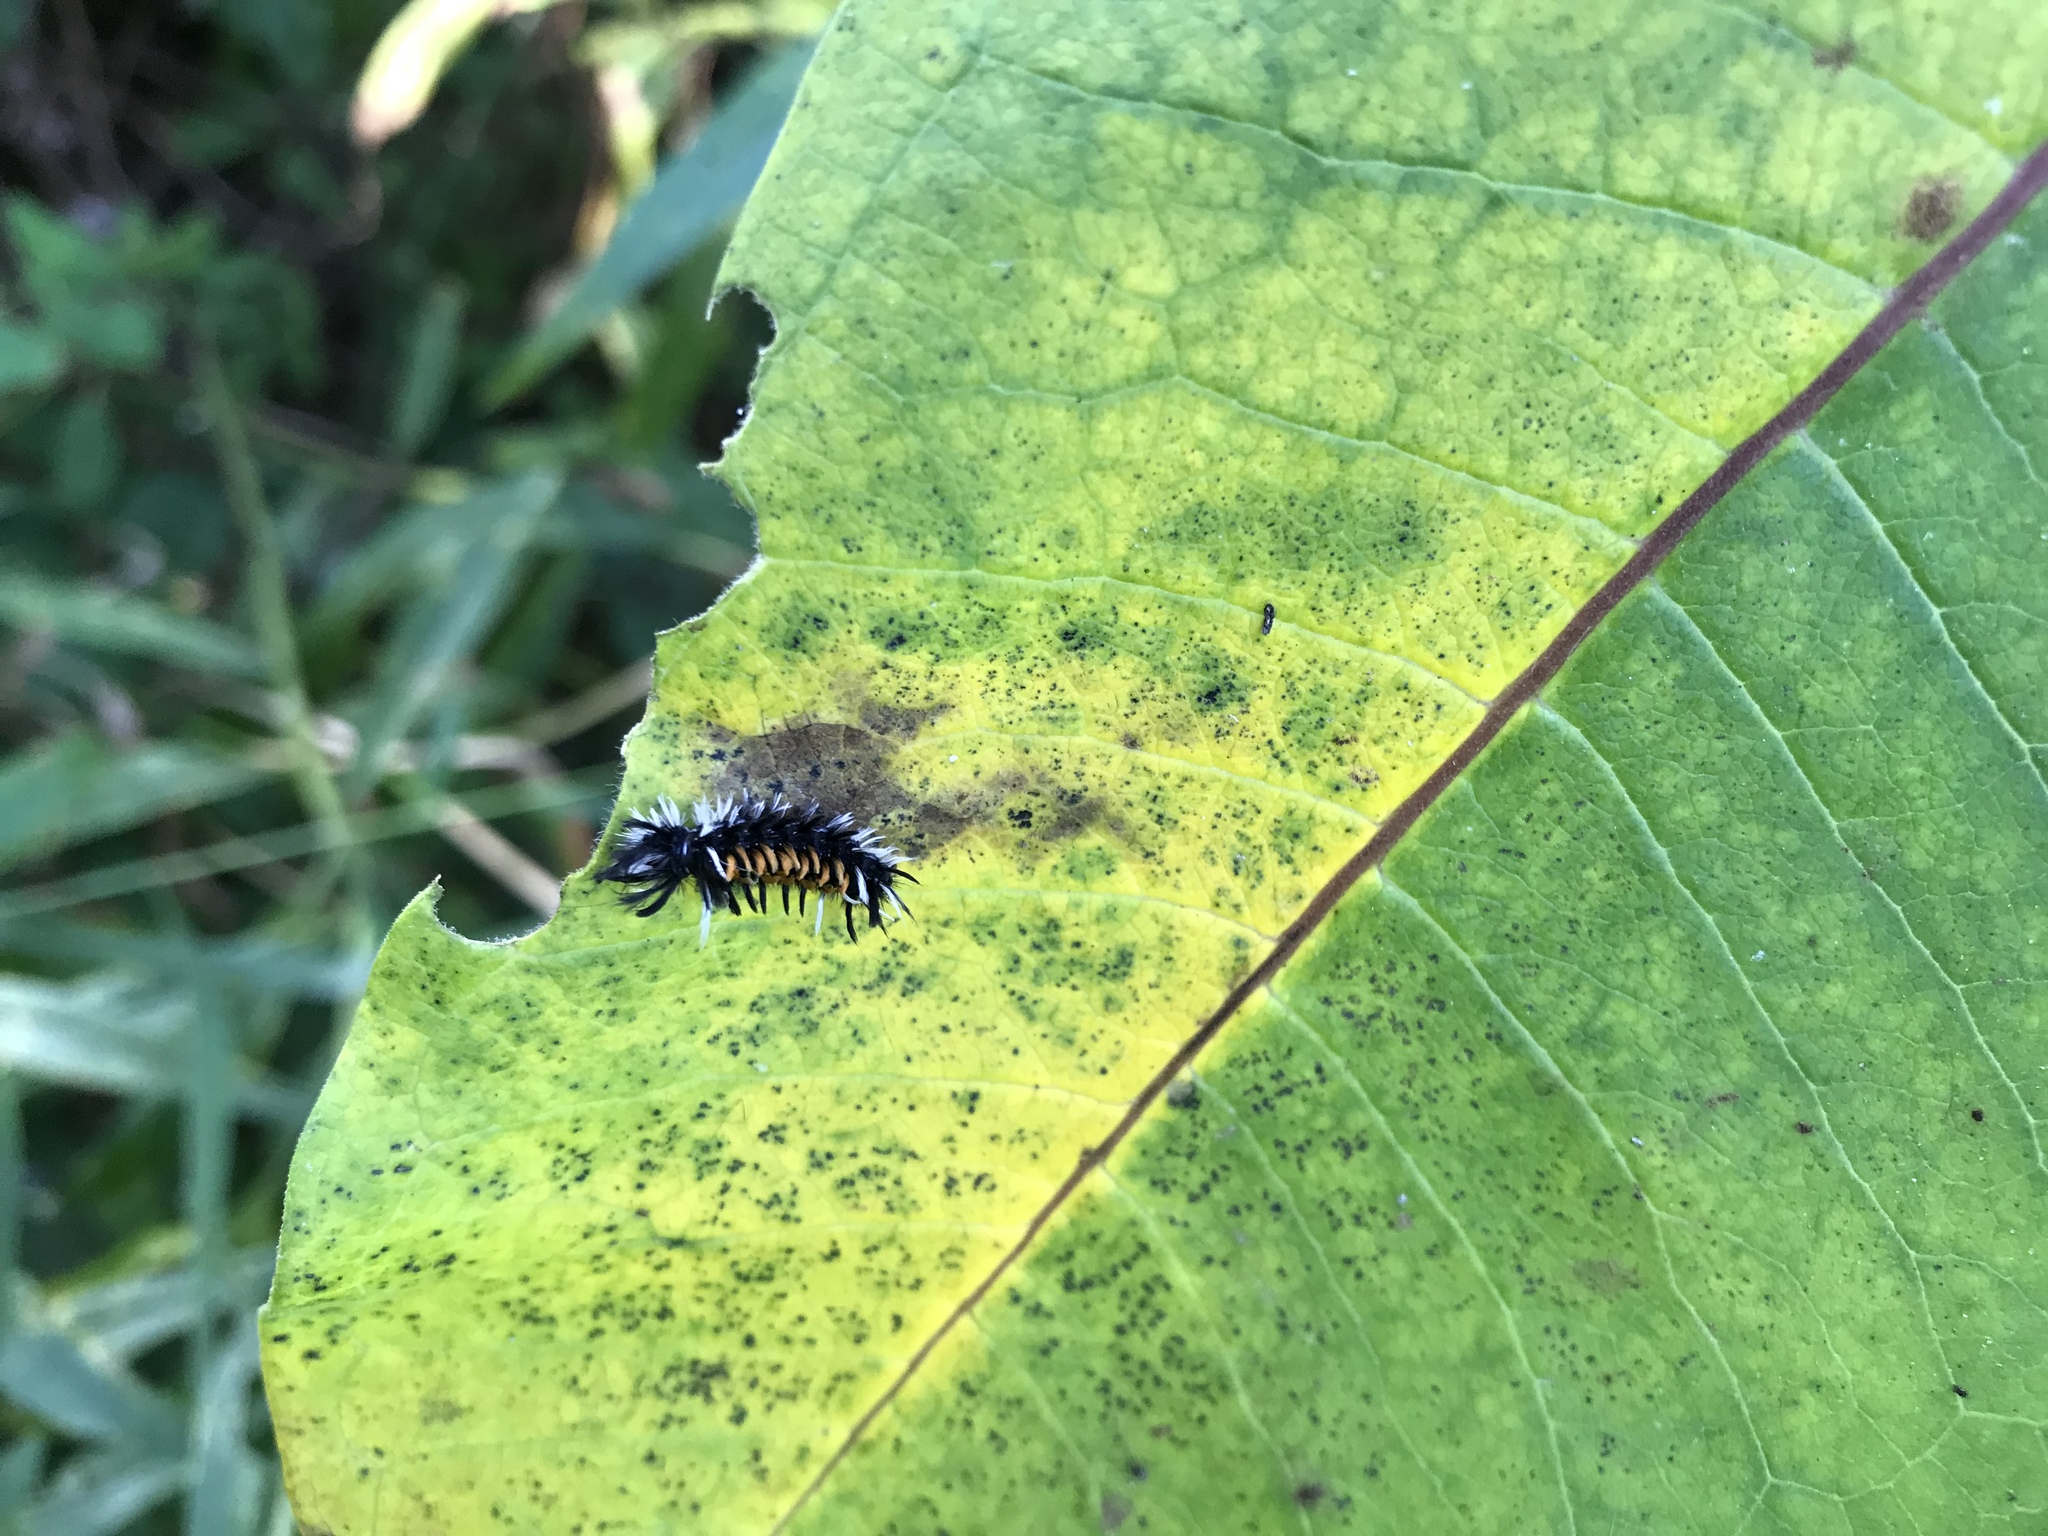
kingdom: Animalia
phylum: Arthropoda
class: Insecta
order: Lepidoptera
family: Erebidae
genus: Euchaetes
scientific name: Euchaetes egle
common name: Milkweed tussock moth
